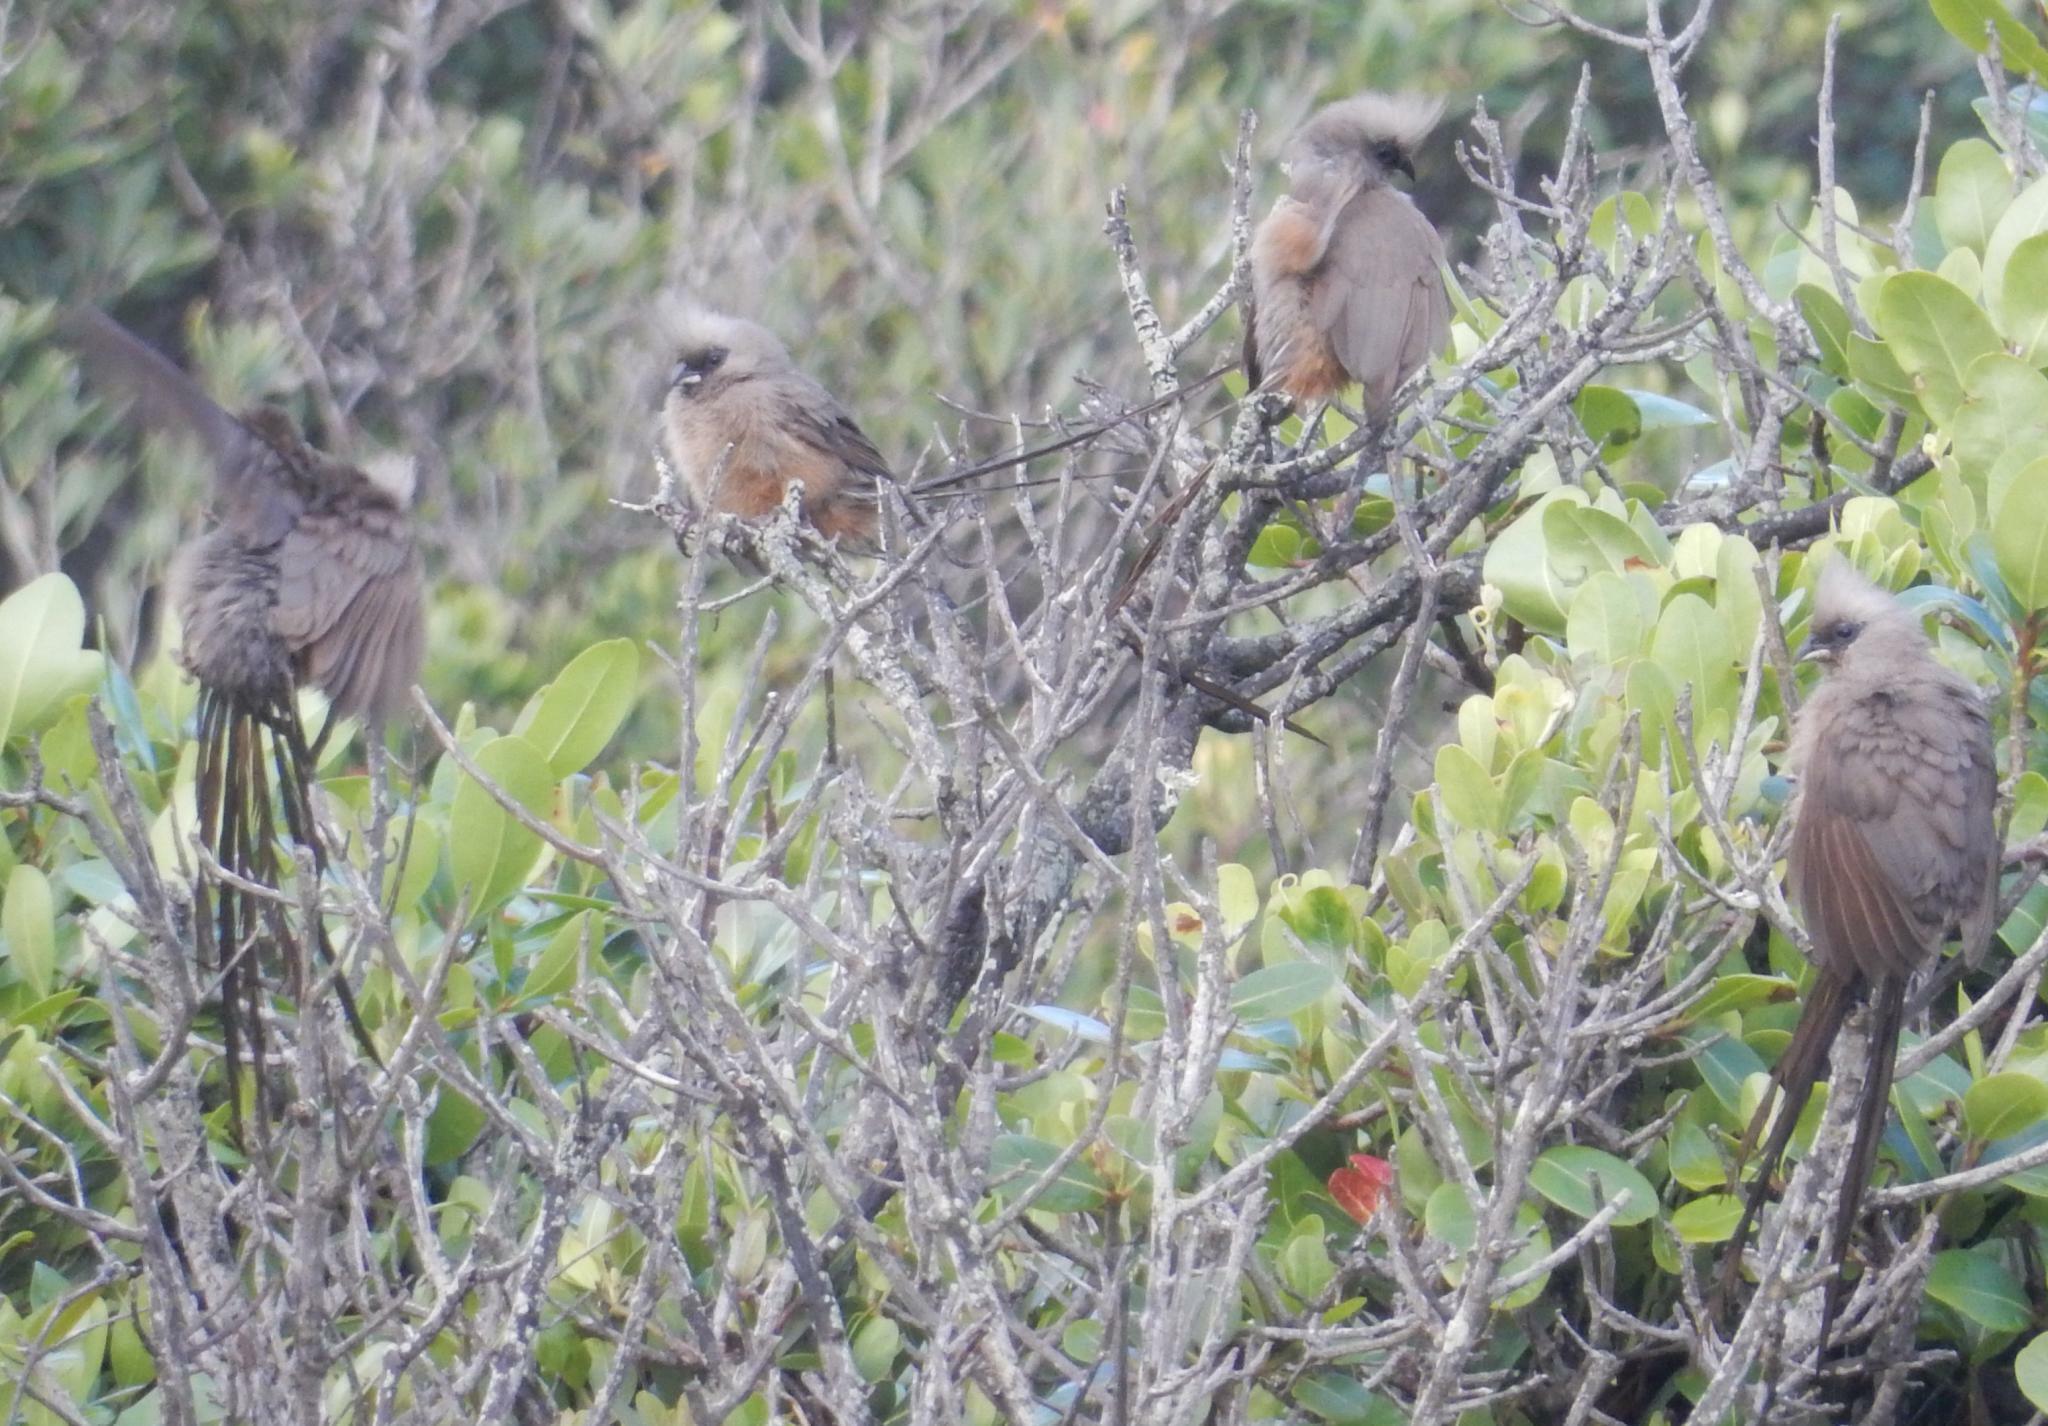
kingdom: Animalia
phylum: Chordata
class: Aves
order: Coliiformes
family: Coliidae
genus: Colius
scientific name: Colius striatus
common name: Speckled mousebird
